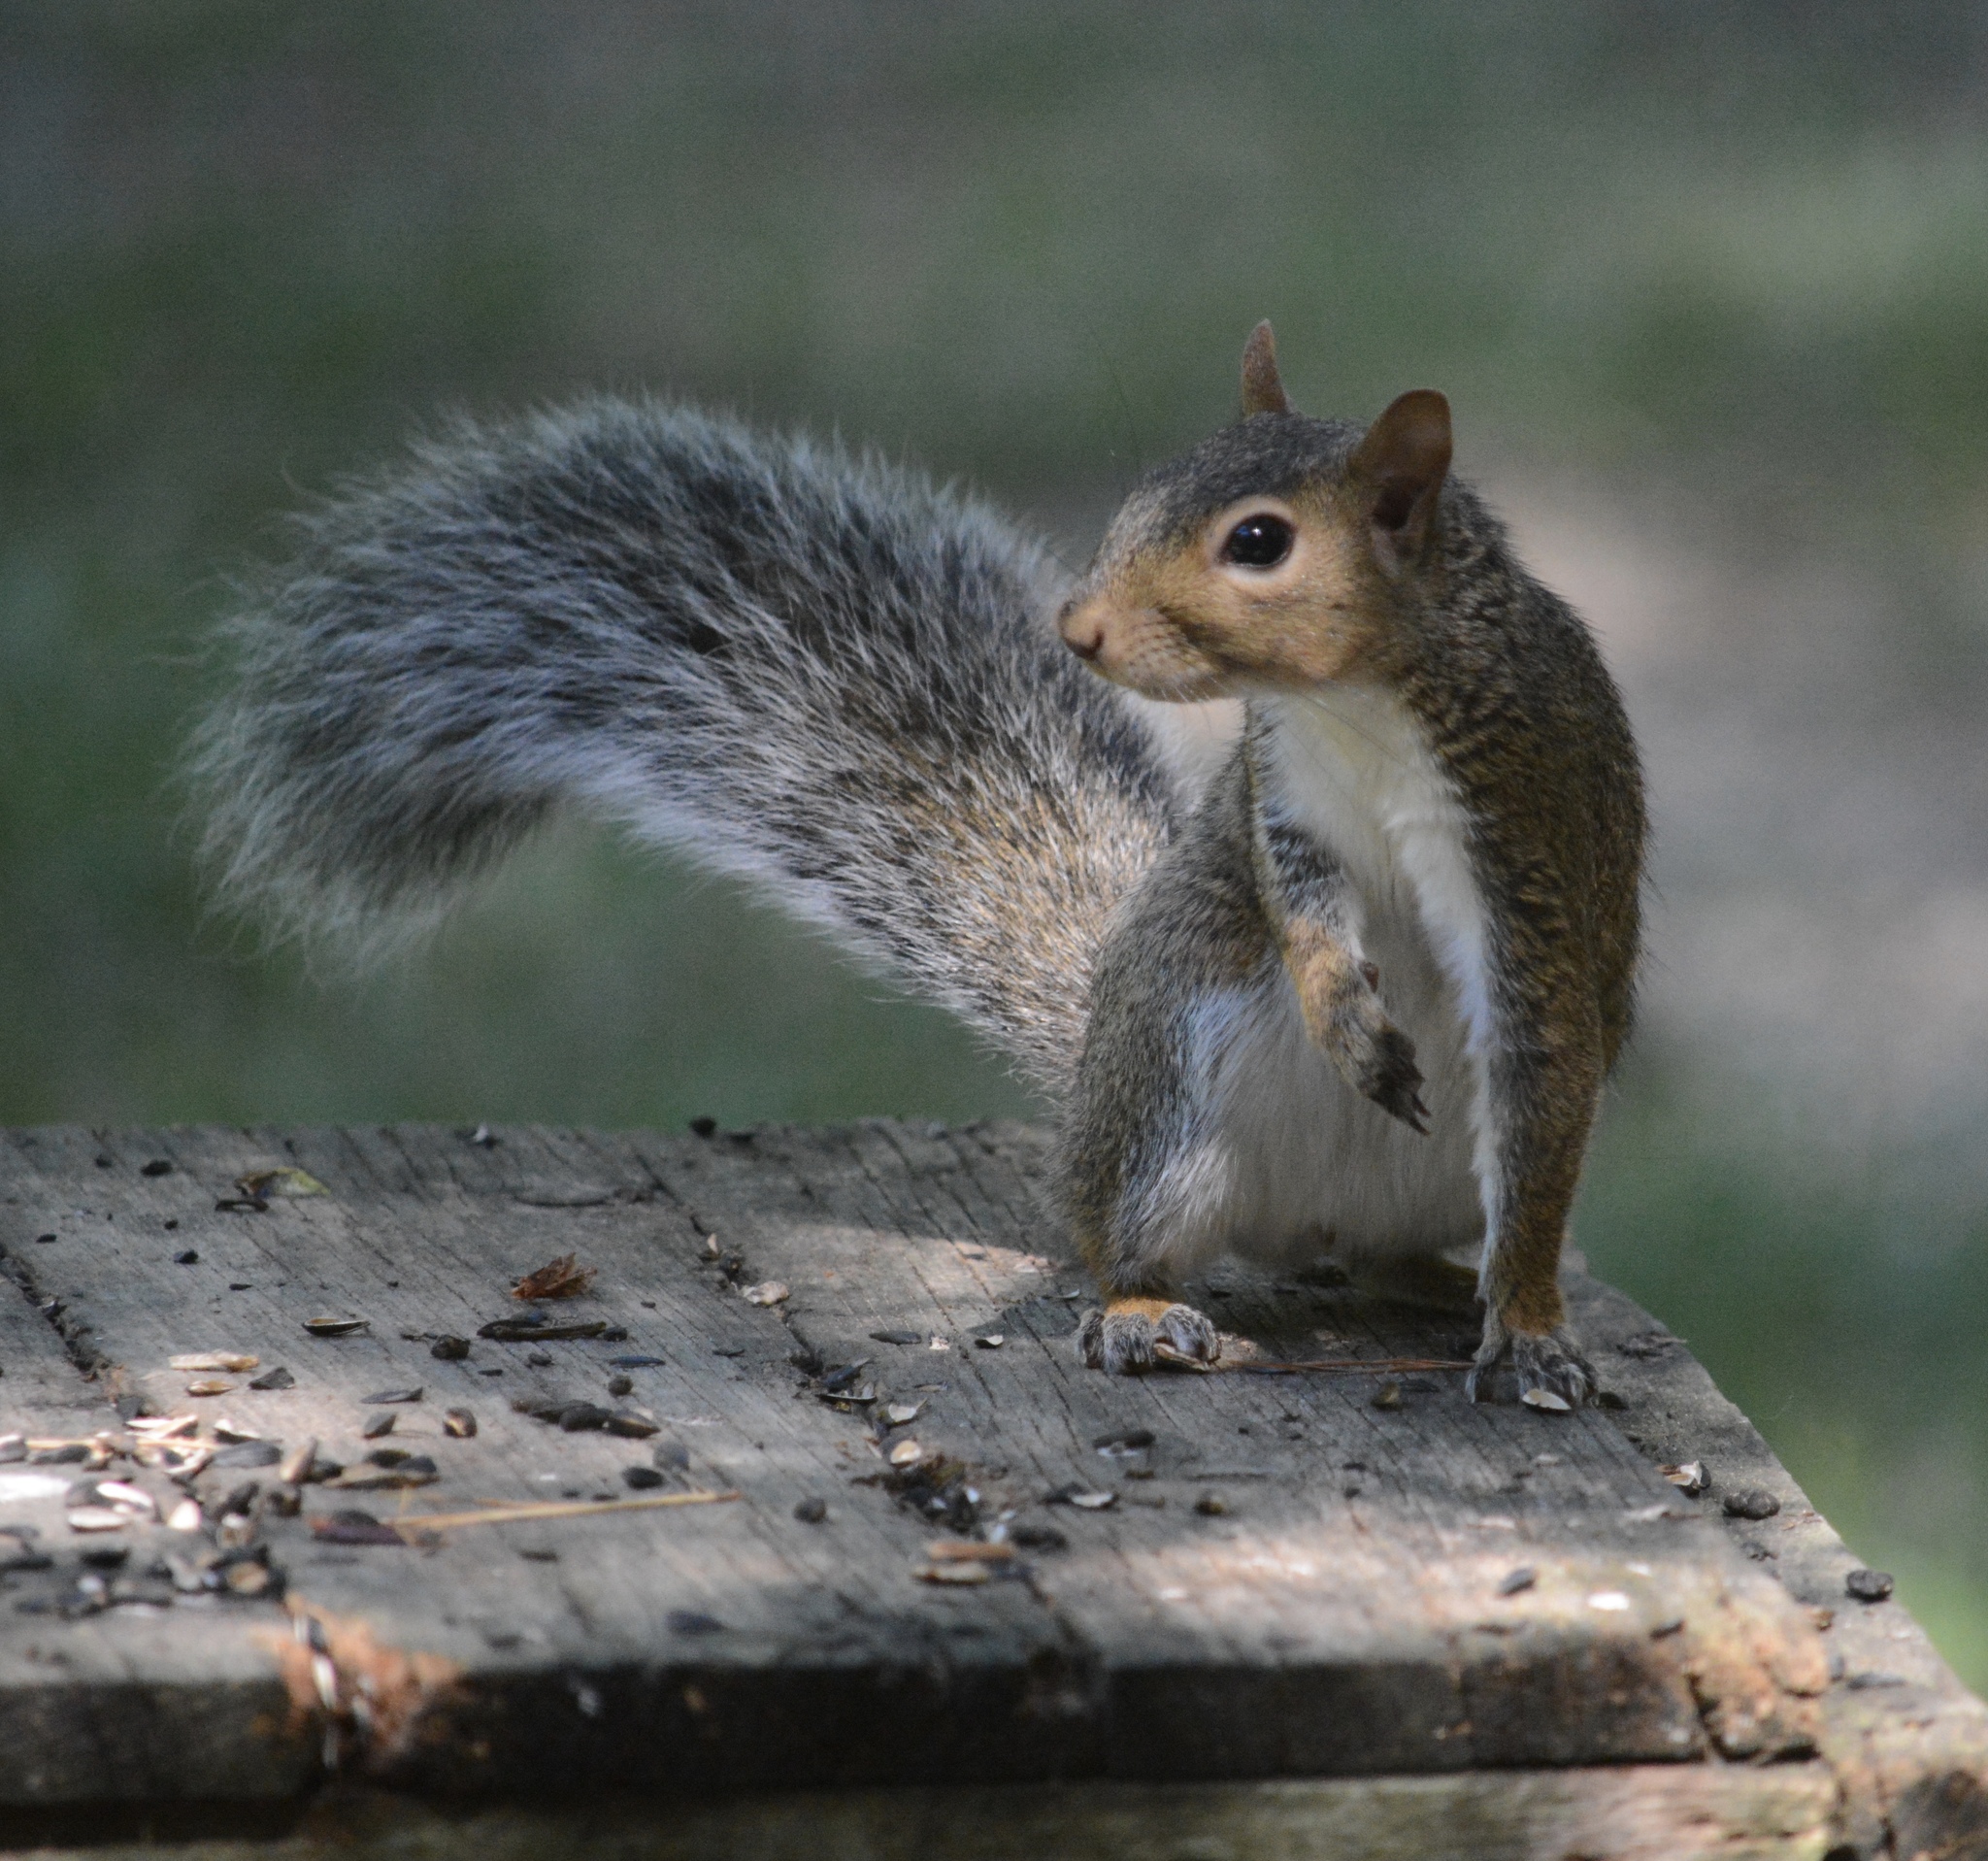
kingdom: Animalia
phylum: Chordata
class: Mammalia
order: Rodentia
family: Sciuridae
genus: Sciurus
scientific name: Sciurus carolinensis
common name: Eastern gray squirrel
